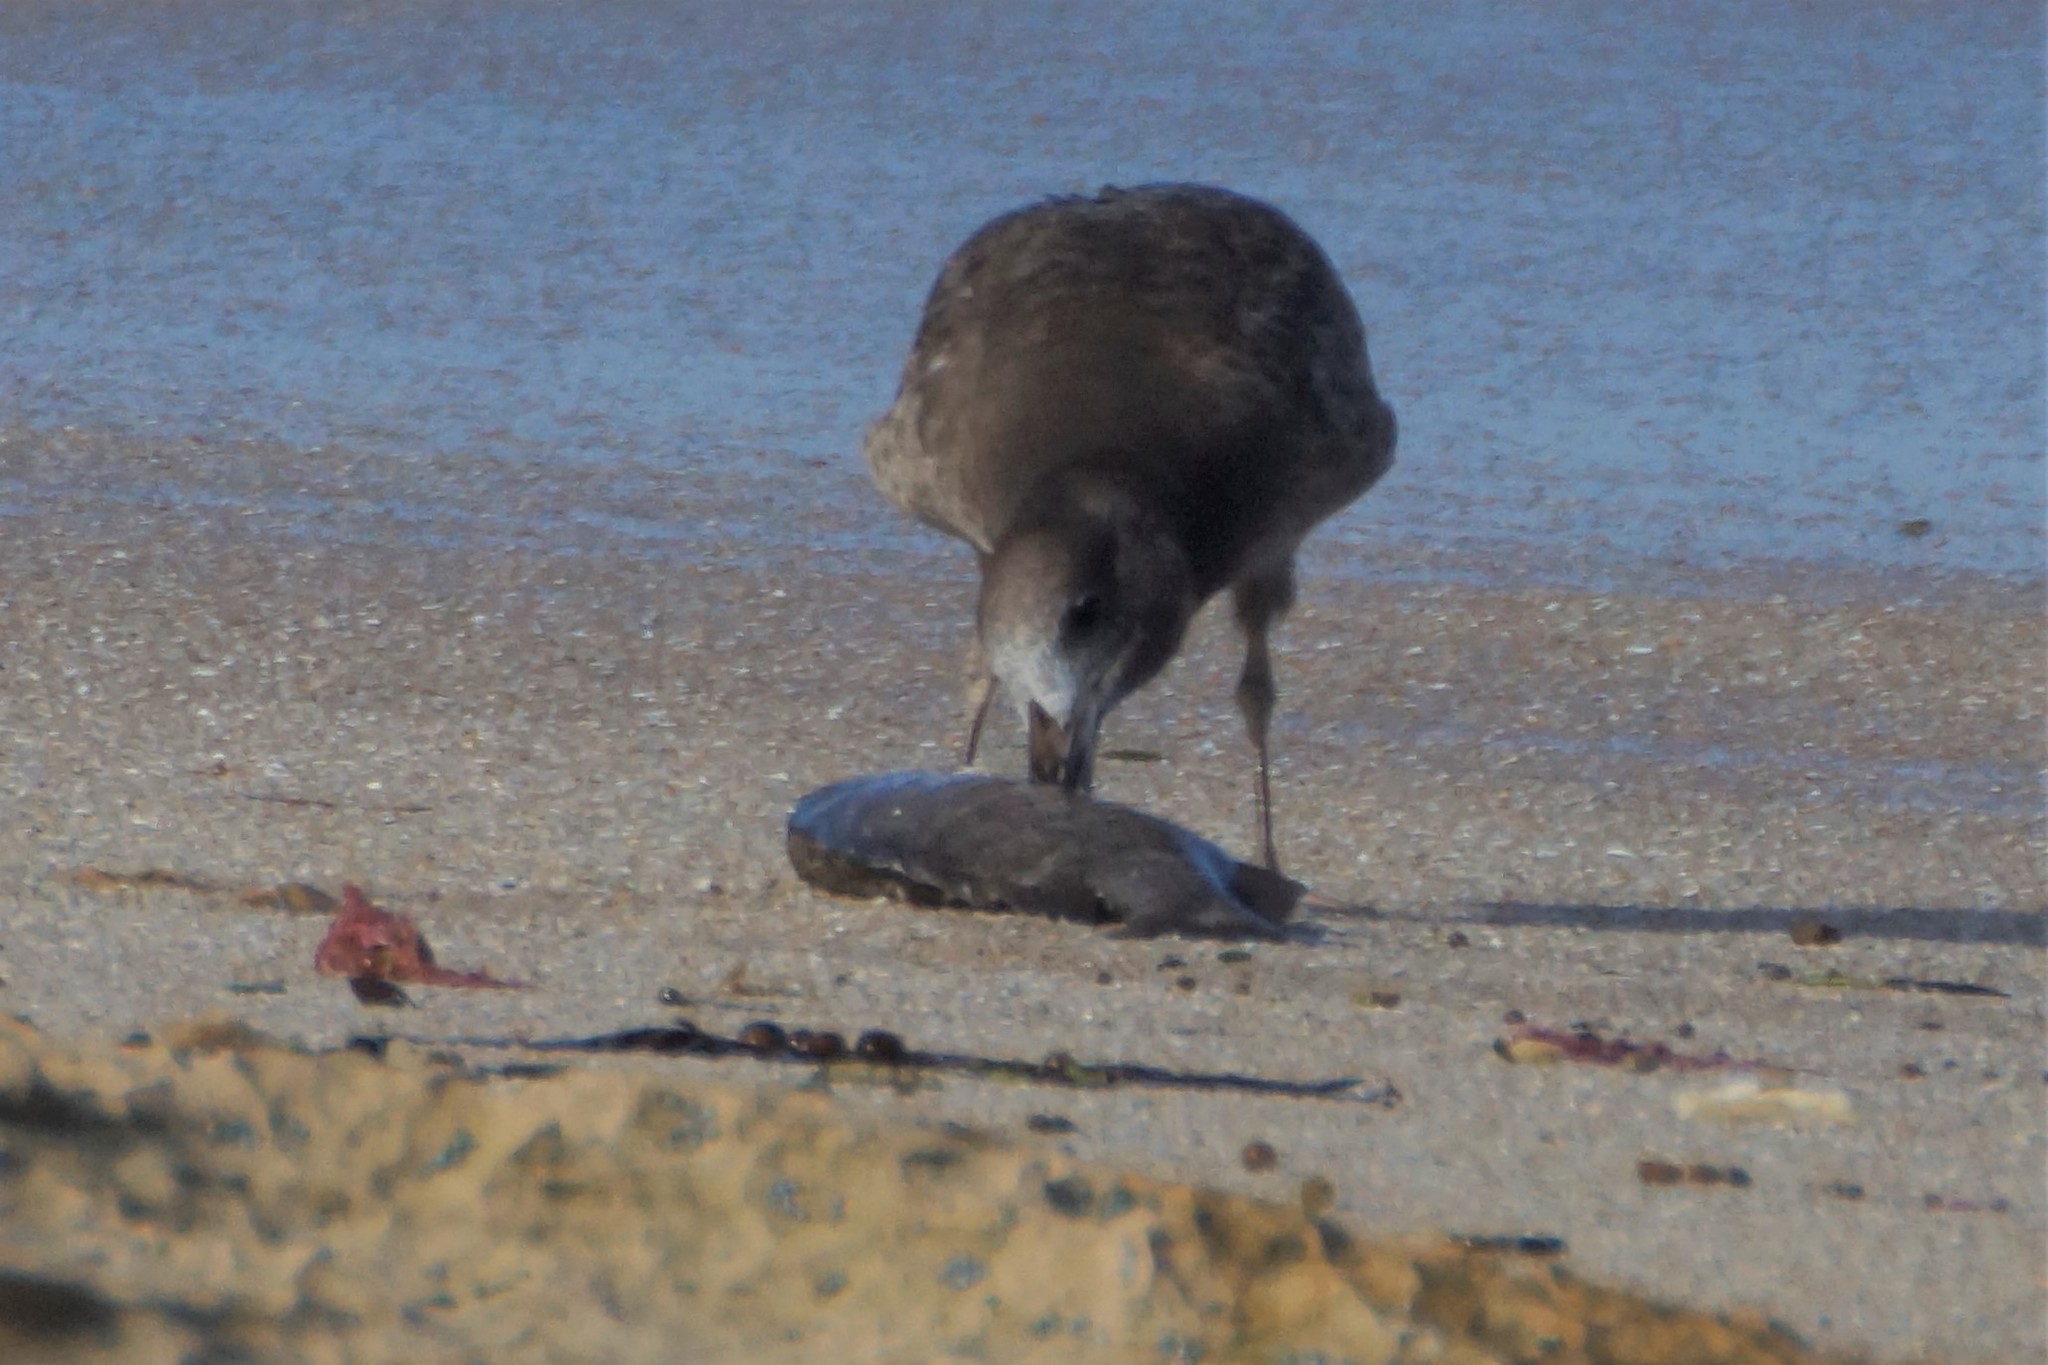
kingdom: Animalia
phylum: Chordata
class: Aves
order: Charadriiformes
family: Laridae
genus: Larus
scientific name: Larus pacificus
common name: Pacific gull
